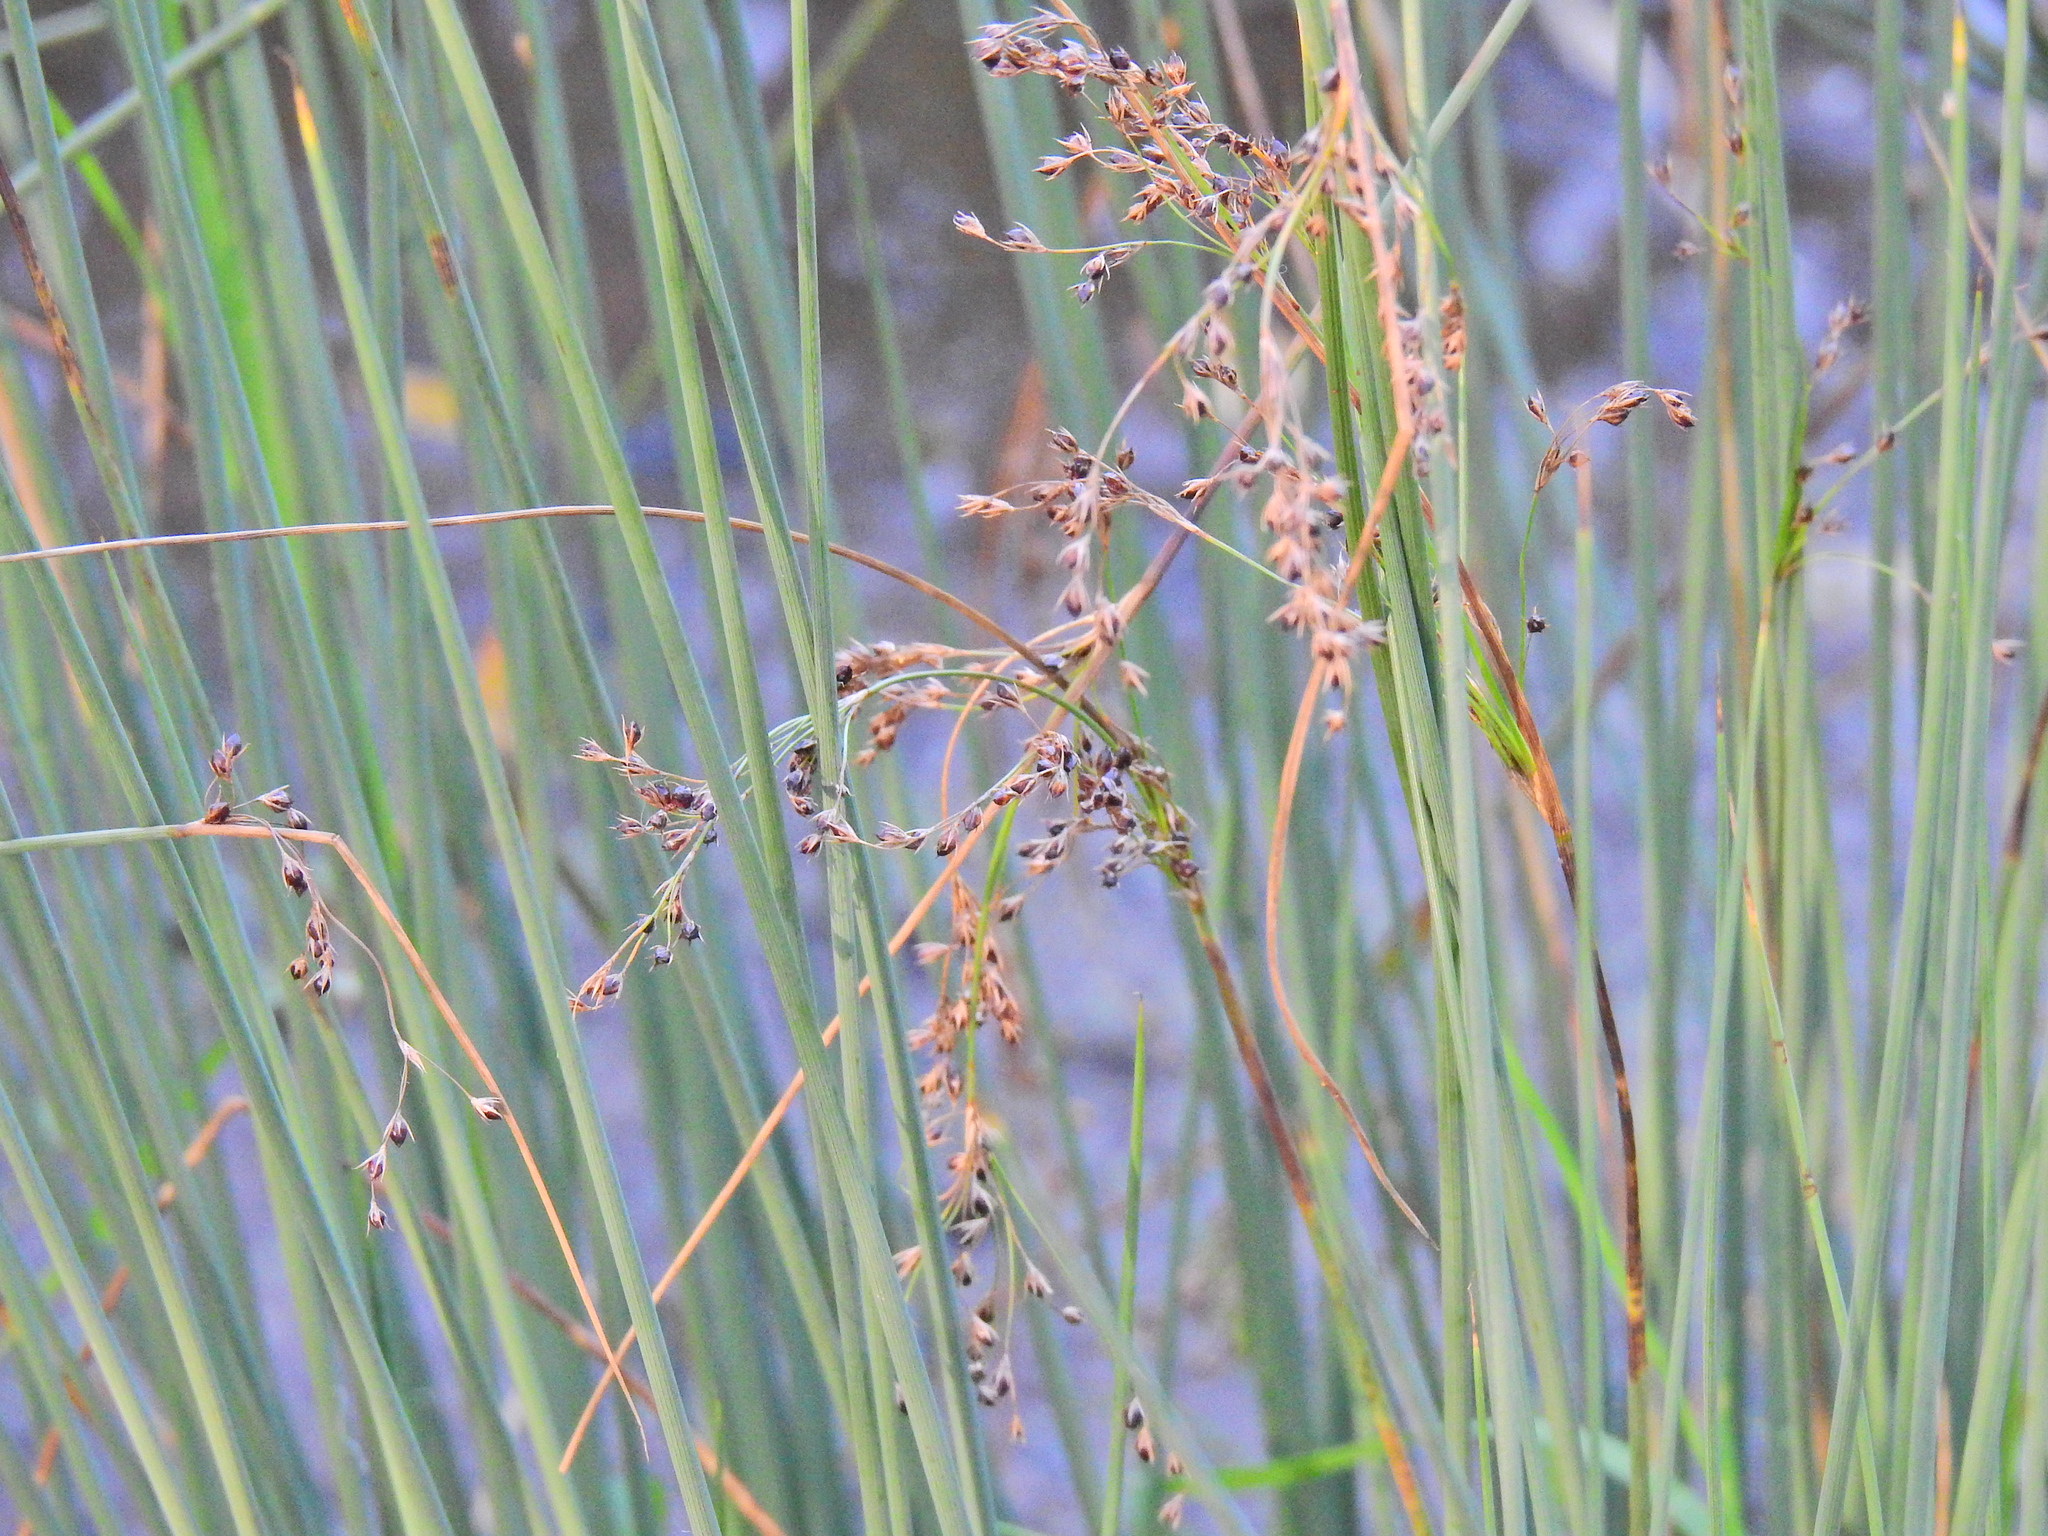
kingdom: Plantae
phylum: Tracheophyta
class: Liliopsida
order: Poales
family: Juncaceae
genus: Juncus
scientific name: Juncus inflexus
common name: Hard rush
